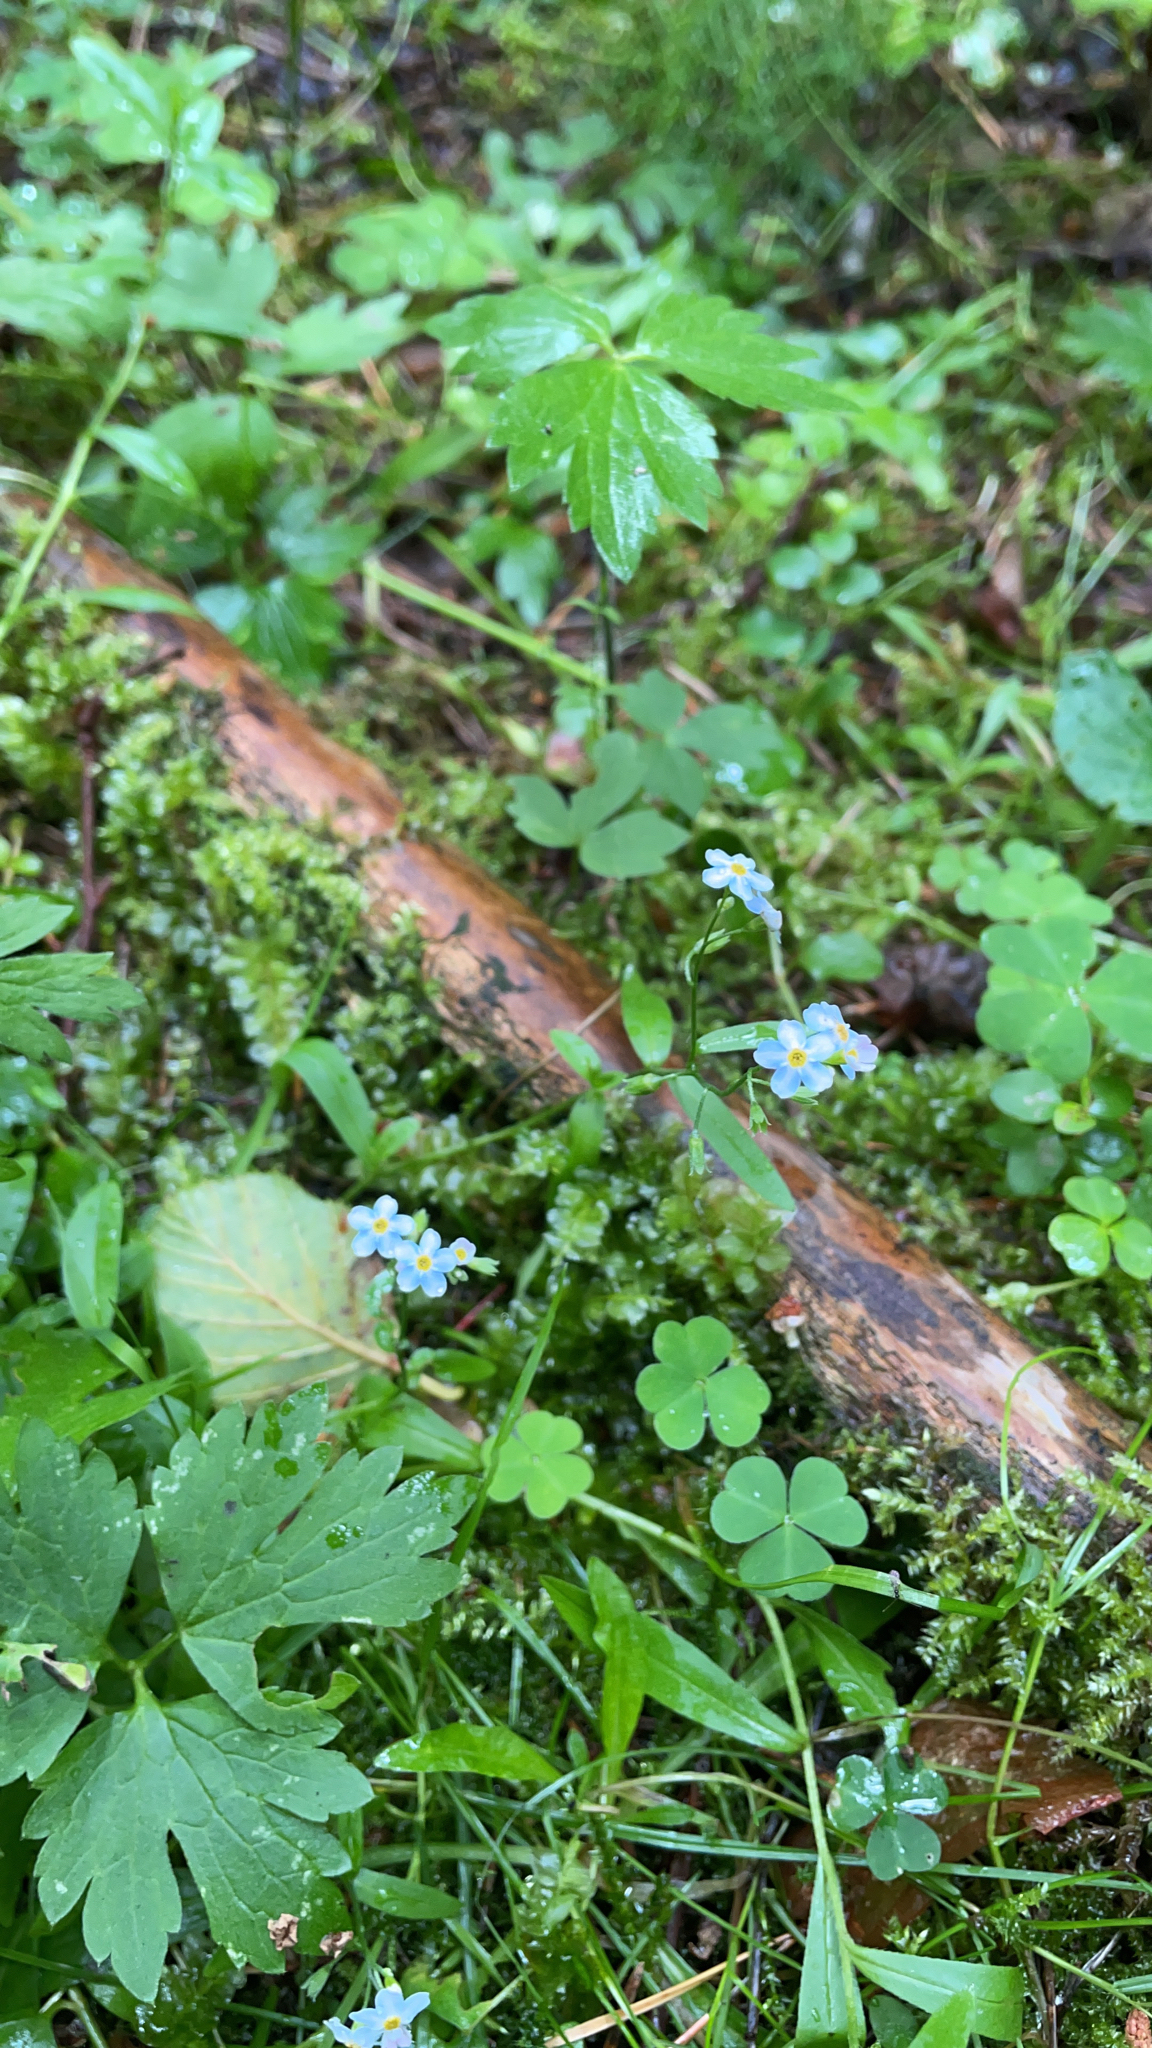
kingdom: Plantae
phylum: Tracheophyta
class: Magnoliopsida
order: Boraginales
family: Boraginaceae
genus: Myosotis
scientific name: Myosotis scorpioides
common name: Water forget-me-not
